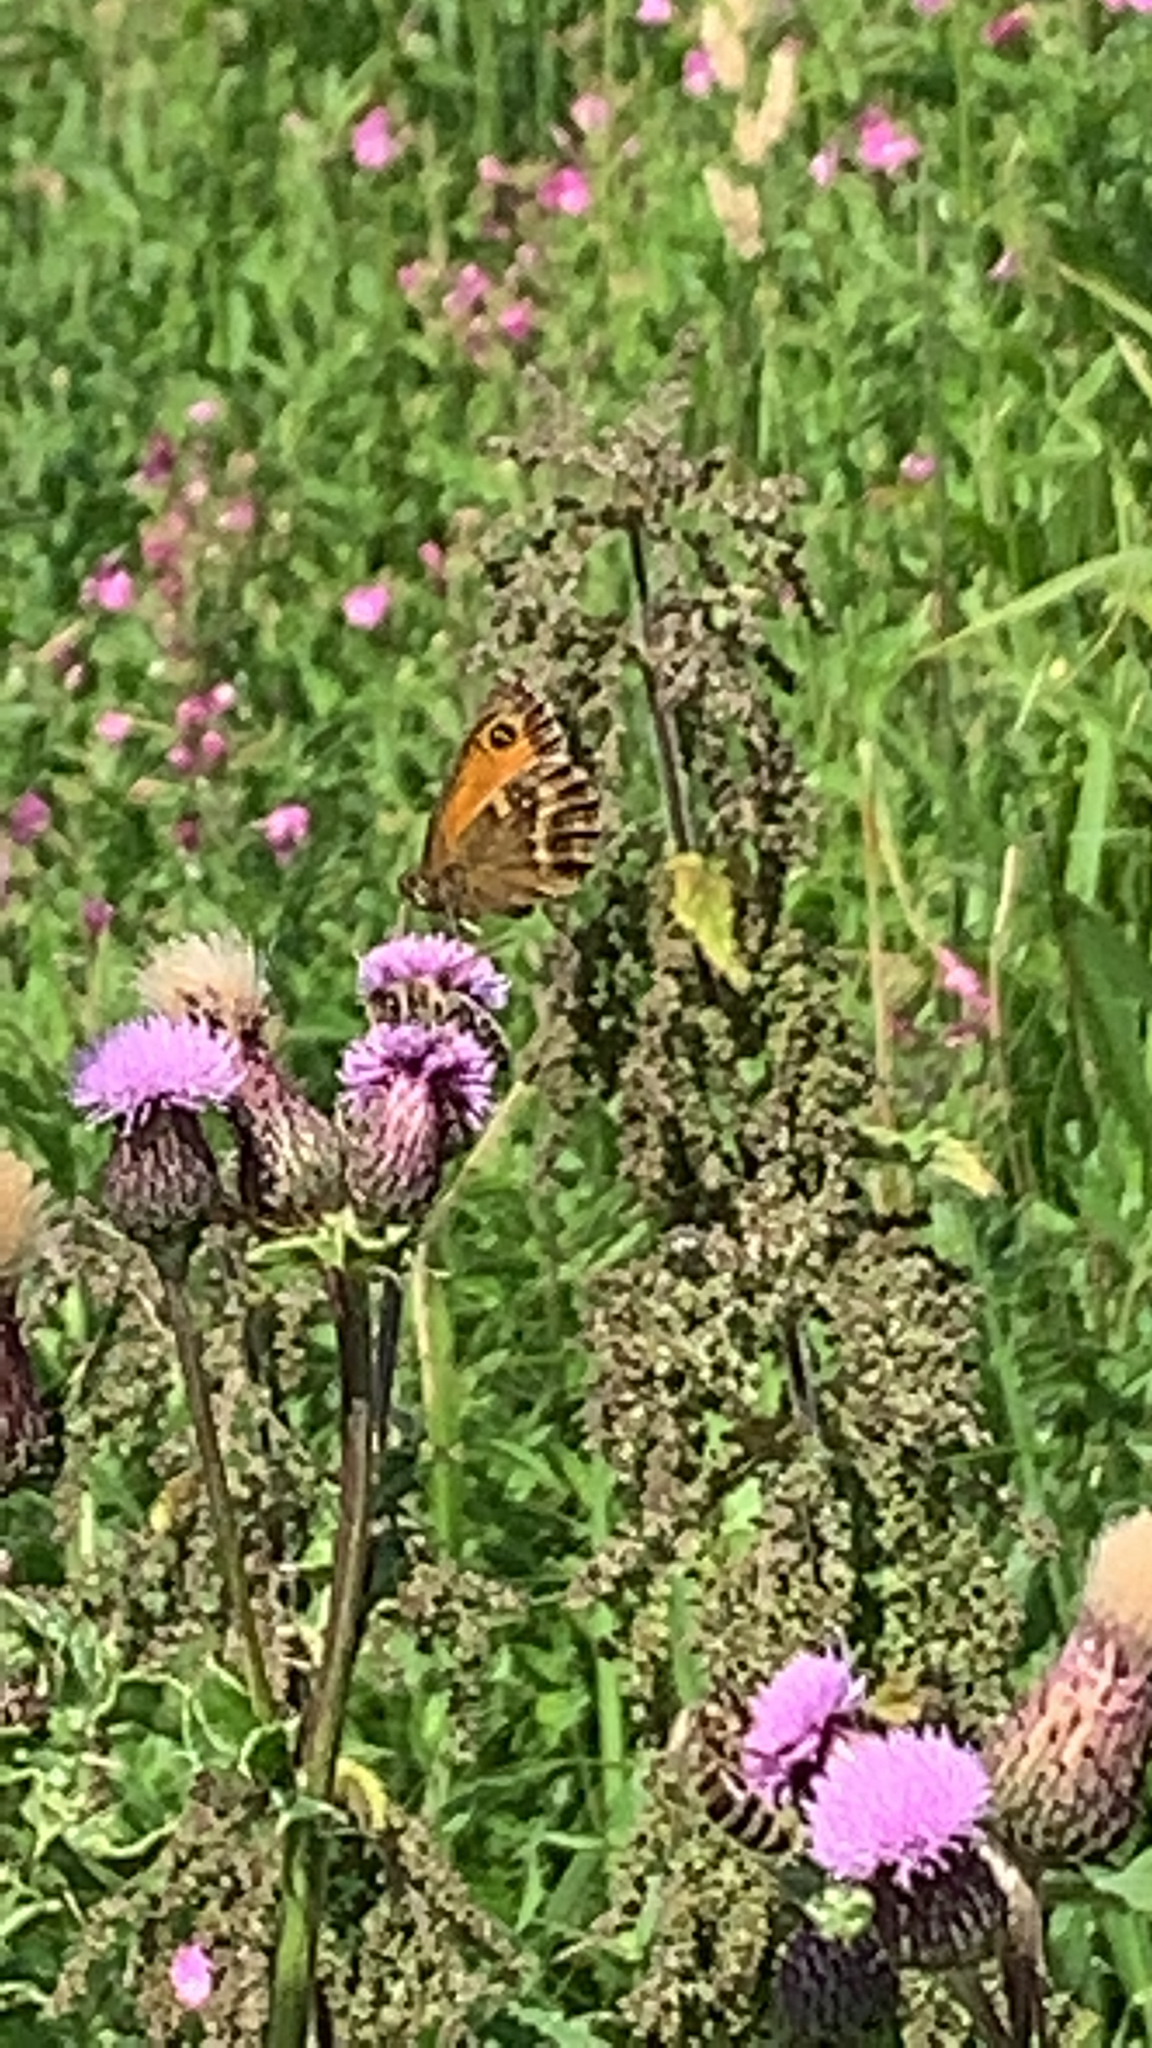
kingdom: Animalia
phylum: Arthropoda
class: Insecta
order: Lepidoptera
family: Nymphalidae
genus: Pyronia
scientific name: Pyronia tithonus
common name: Gatekeeper
